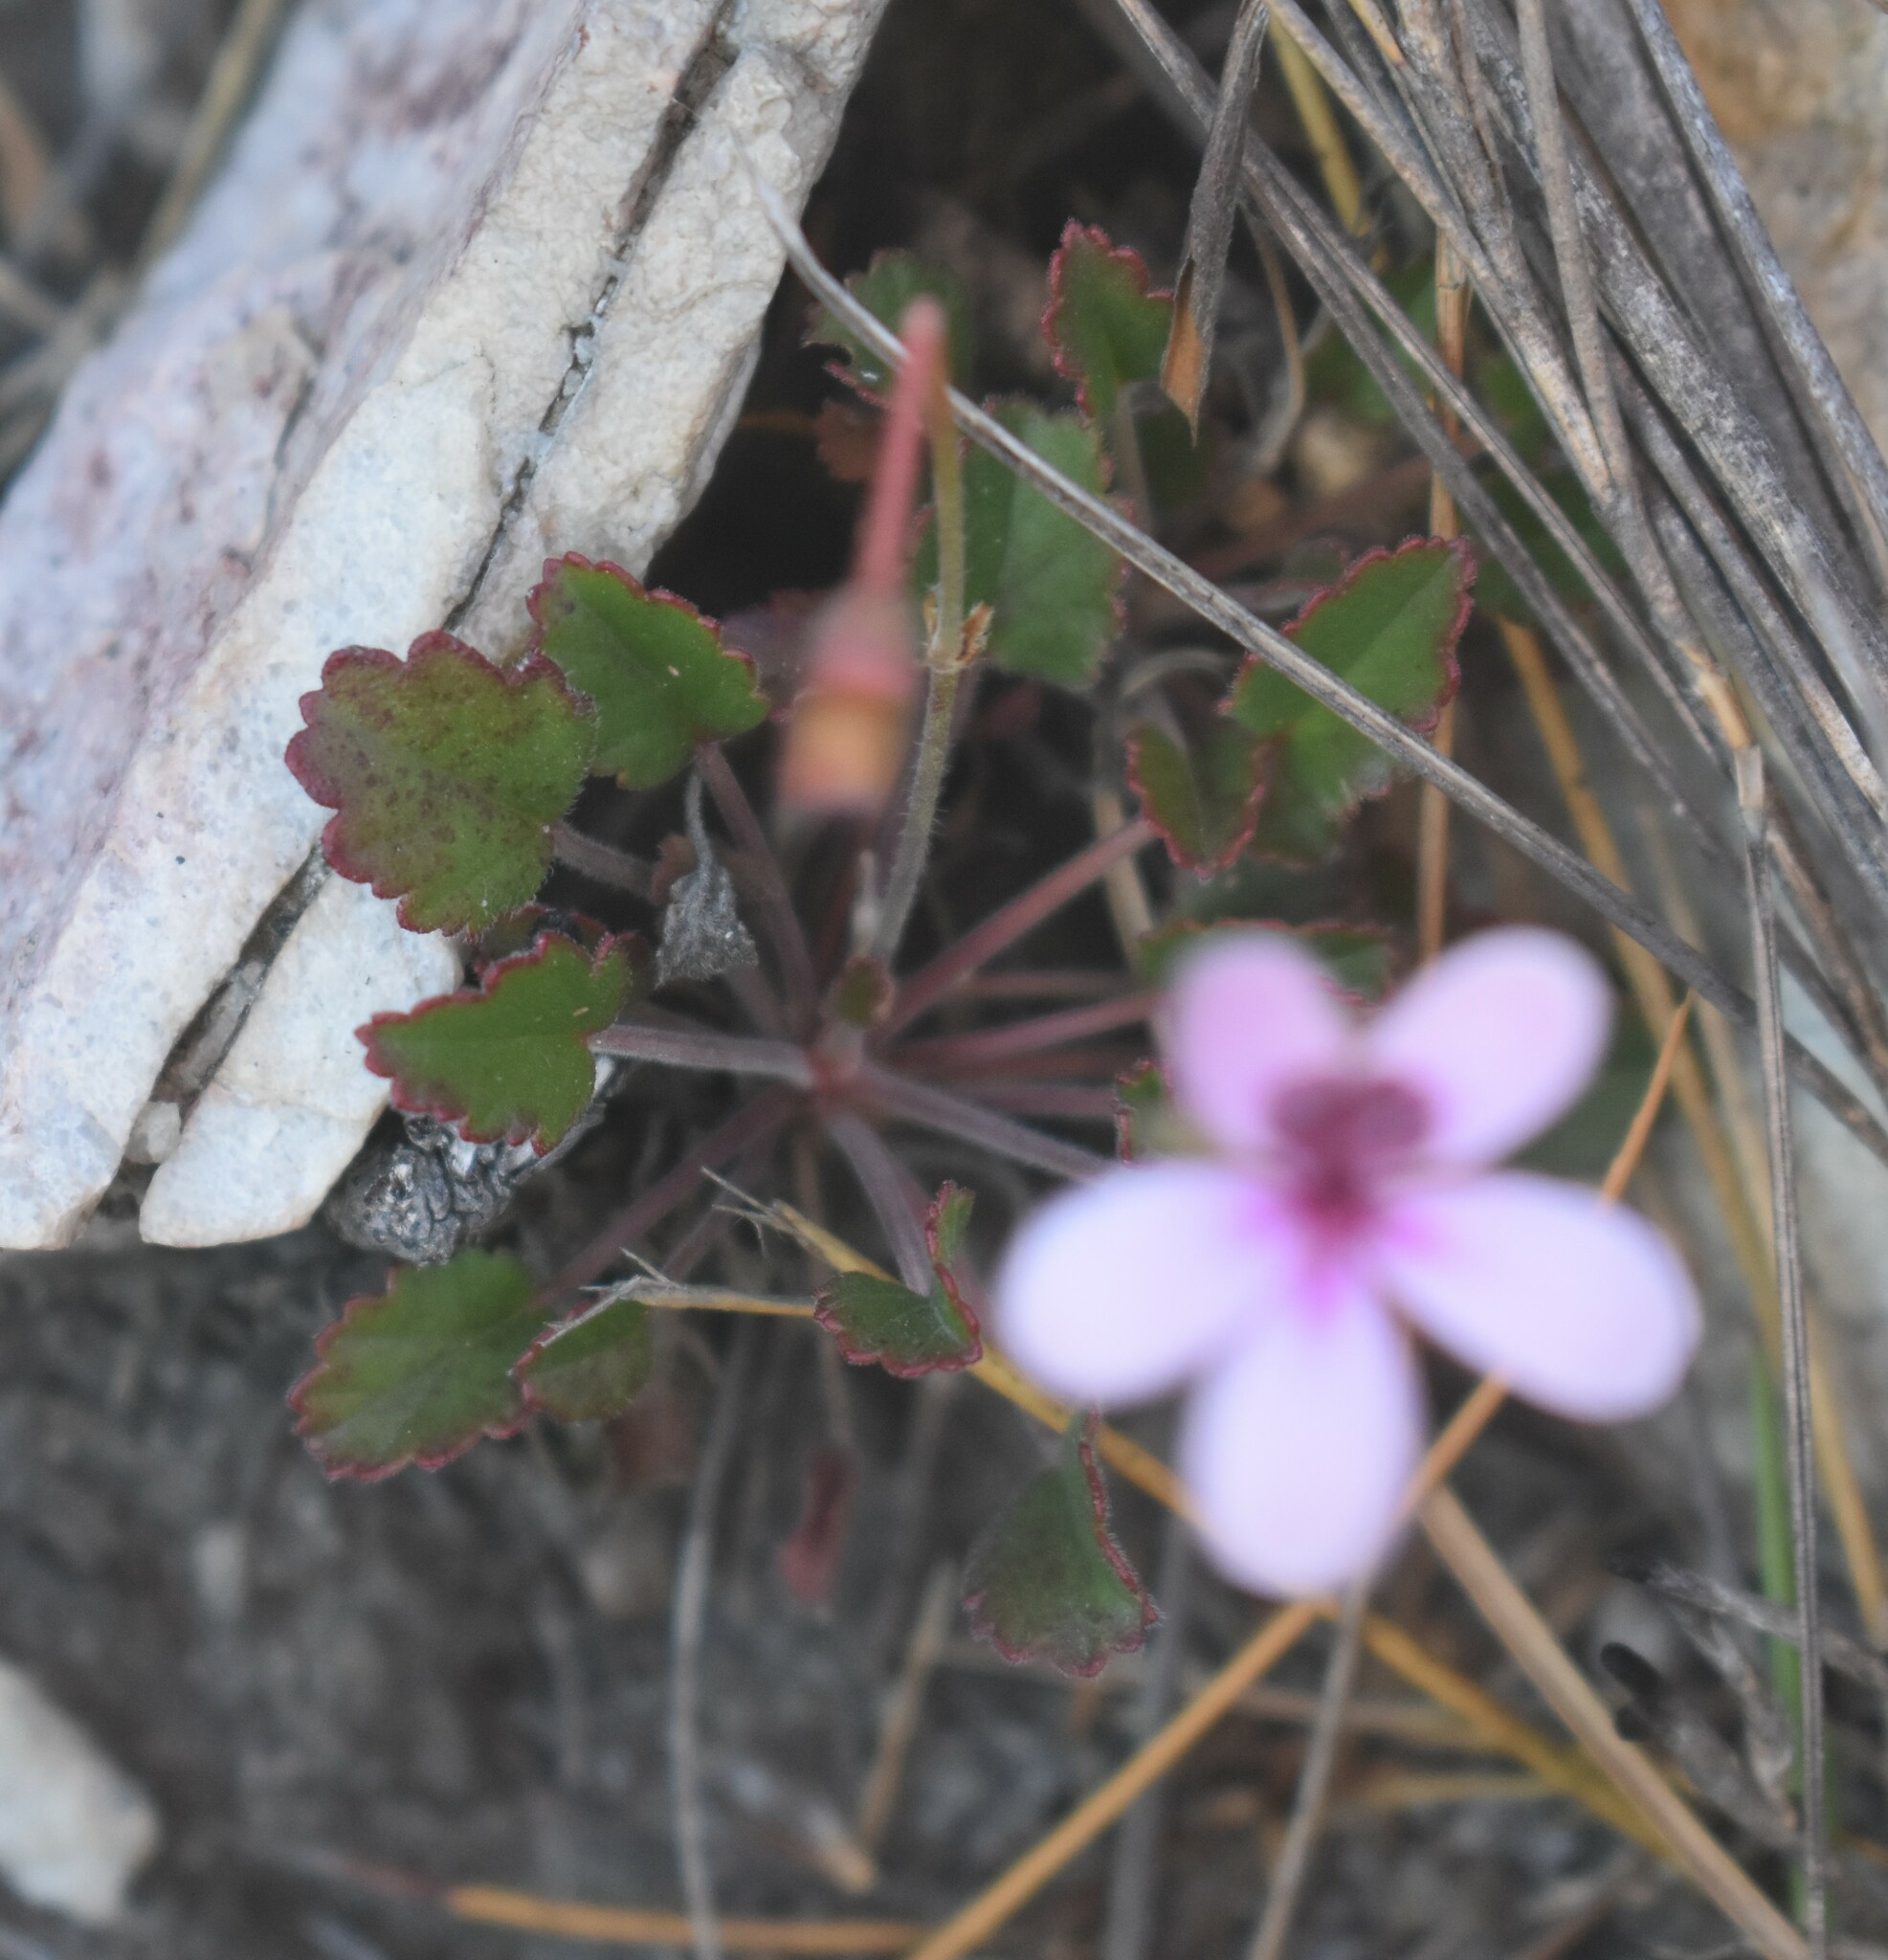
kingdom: Plantae
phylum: Tracheophyta
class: Magnoliopsida
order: Geraniales
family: Geraniaceae
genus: Pelargonium
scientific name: Pelargonium burgerianum
